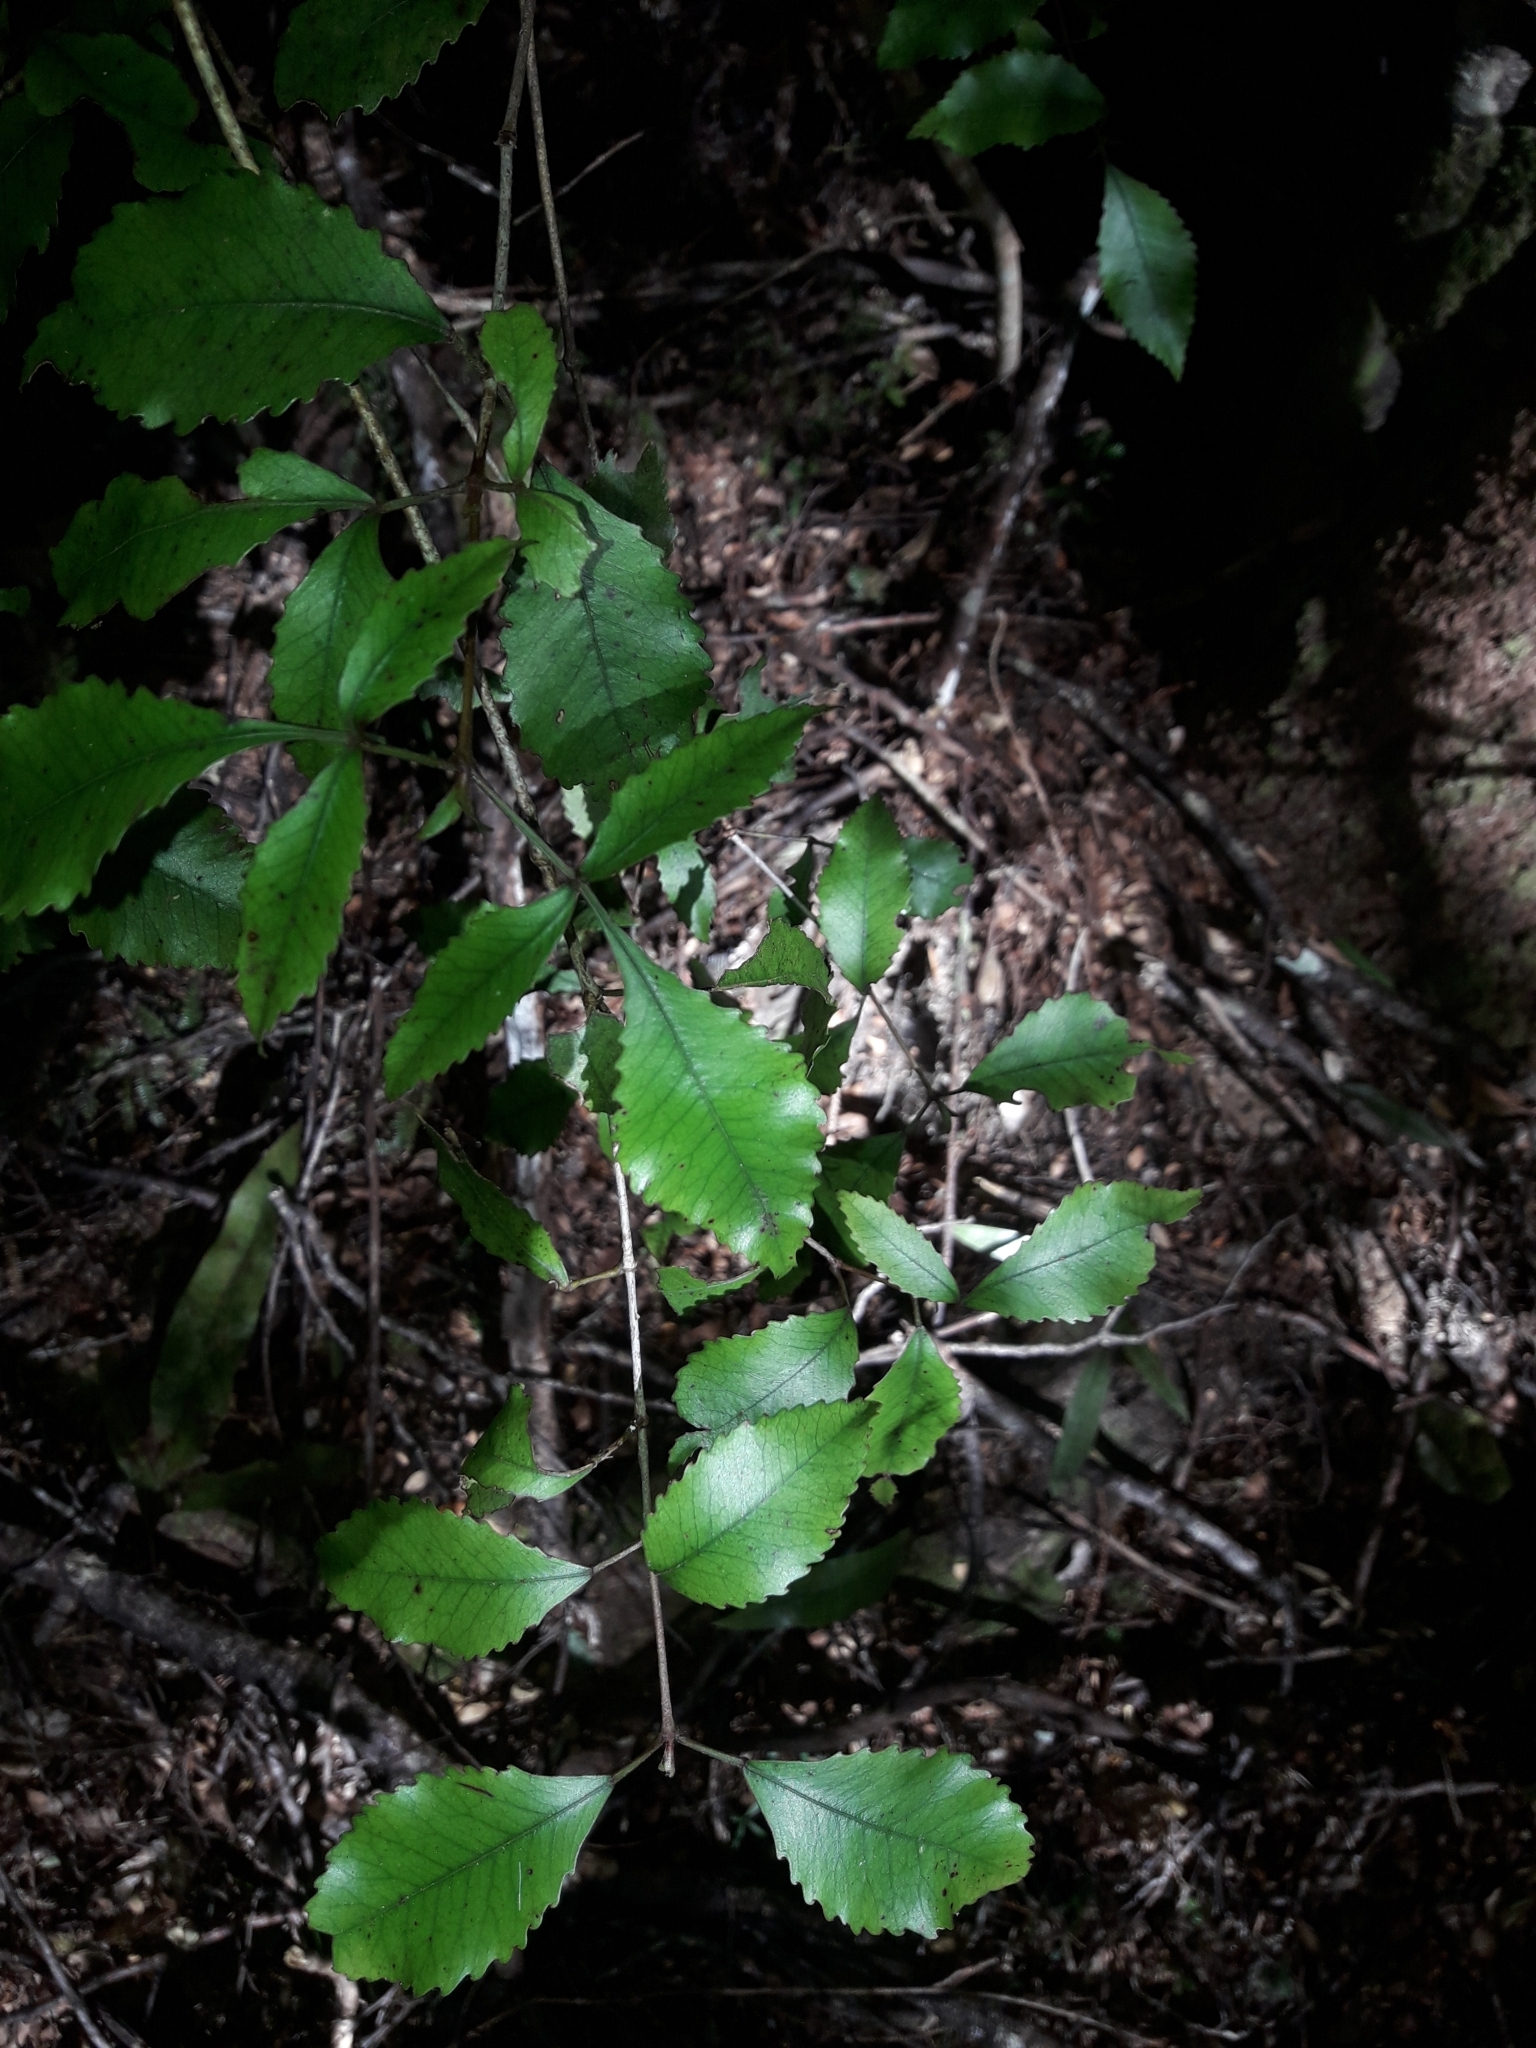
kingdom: Plantae
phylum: Tracheophyta
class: Magnoliopsida
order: Oxalidales
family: Cunoniaceae
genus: Pterophylla
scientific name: Pterophylla racemosa
